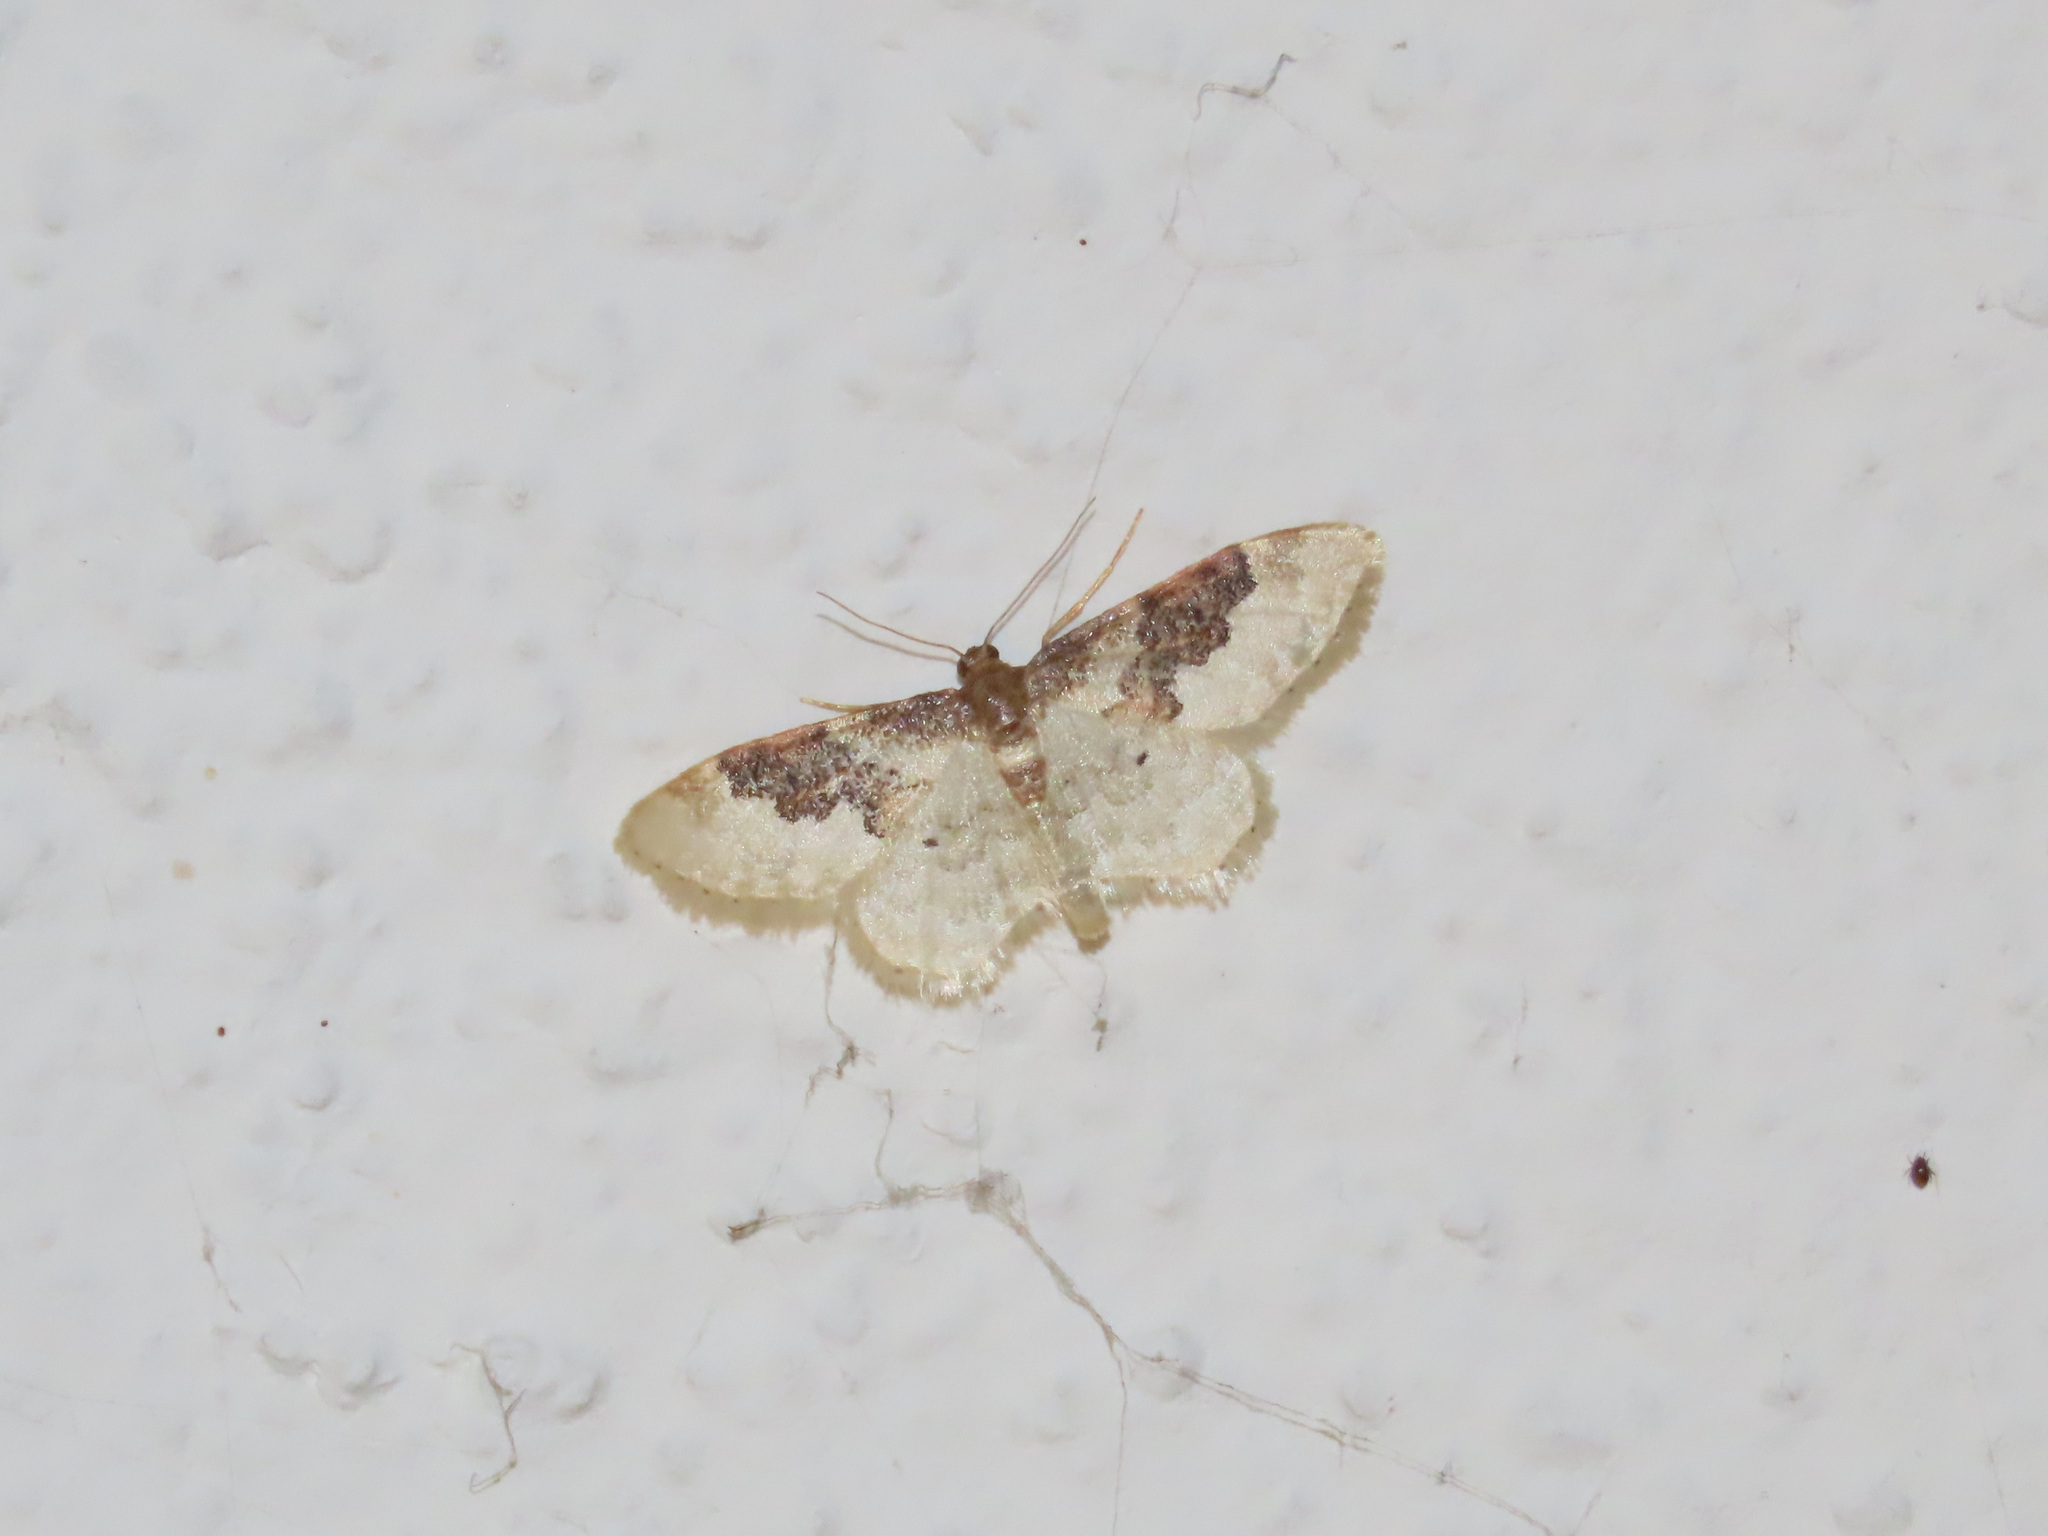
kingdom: Animalia
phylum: Arthropoda
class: Insecta
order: Lepidoptera
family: Geometridae
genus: Idaea
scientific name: Idaea rusticata
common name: Least carpet
